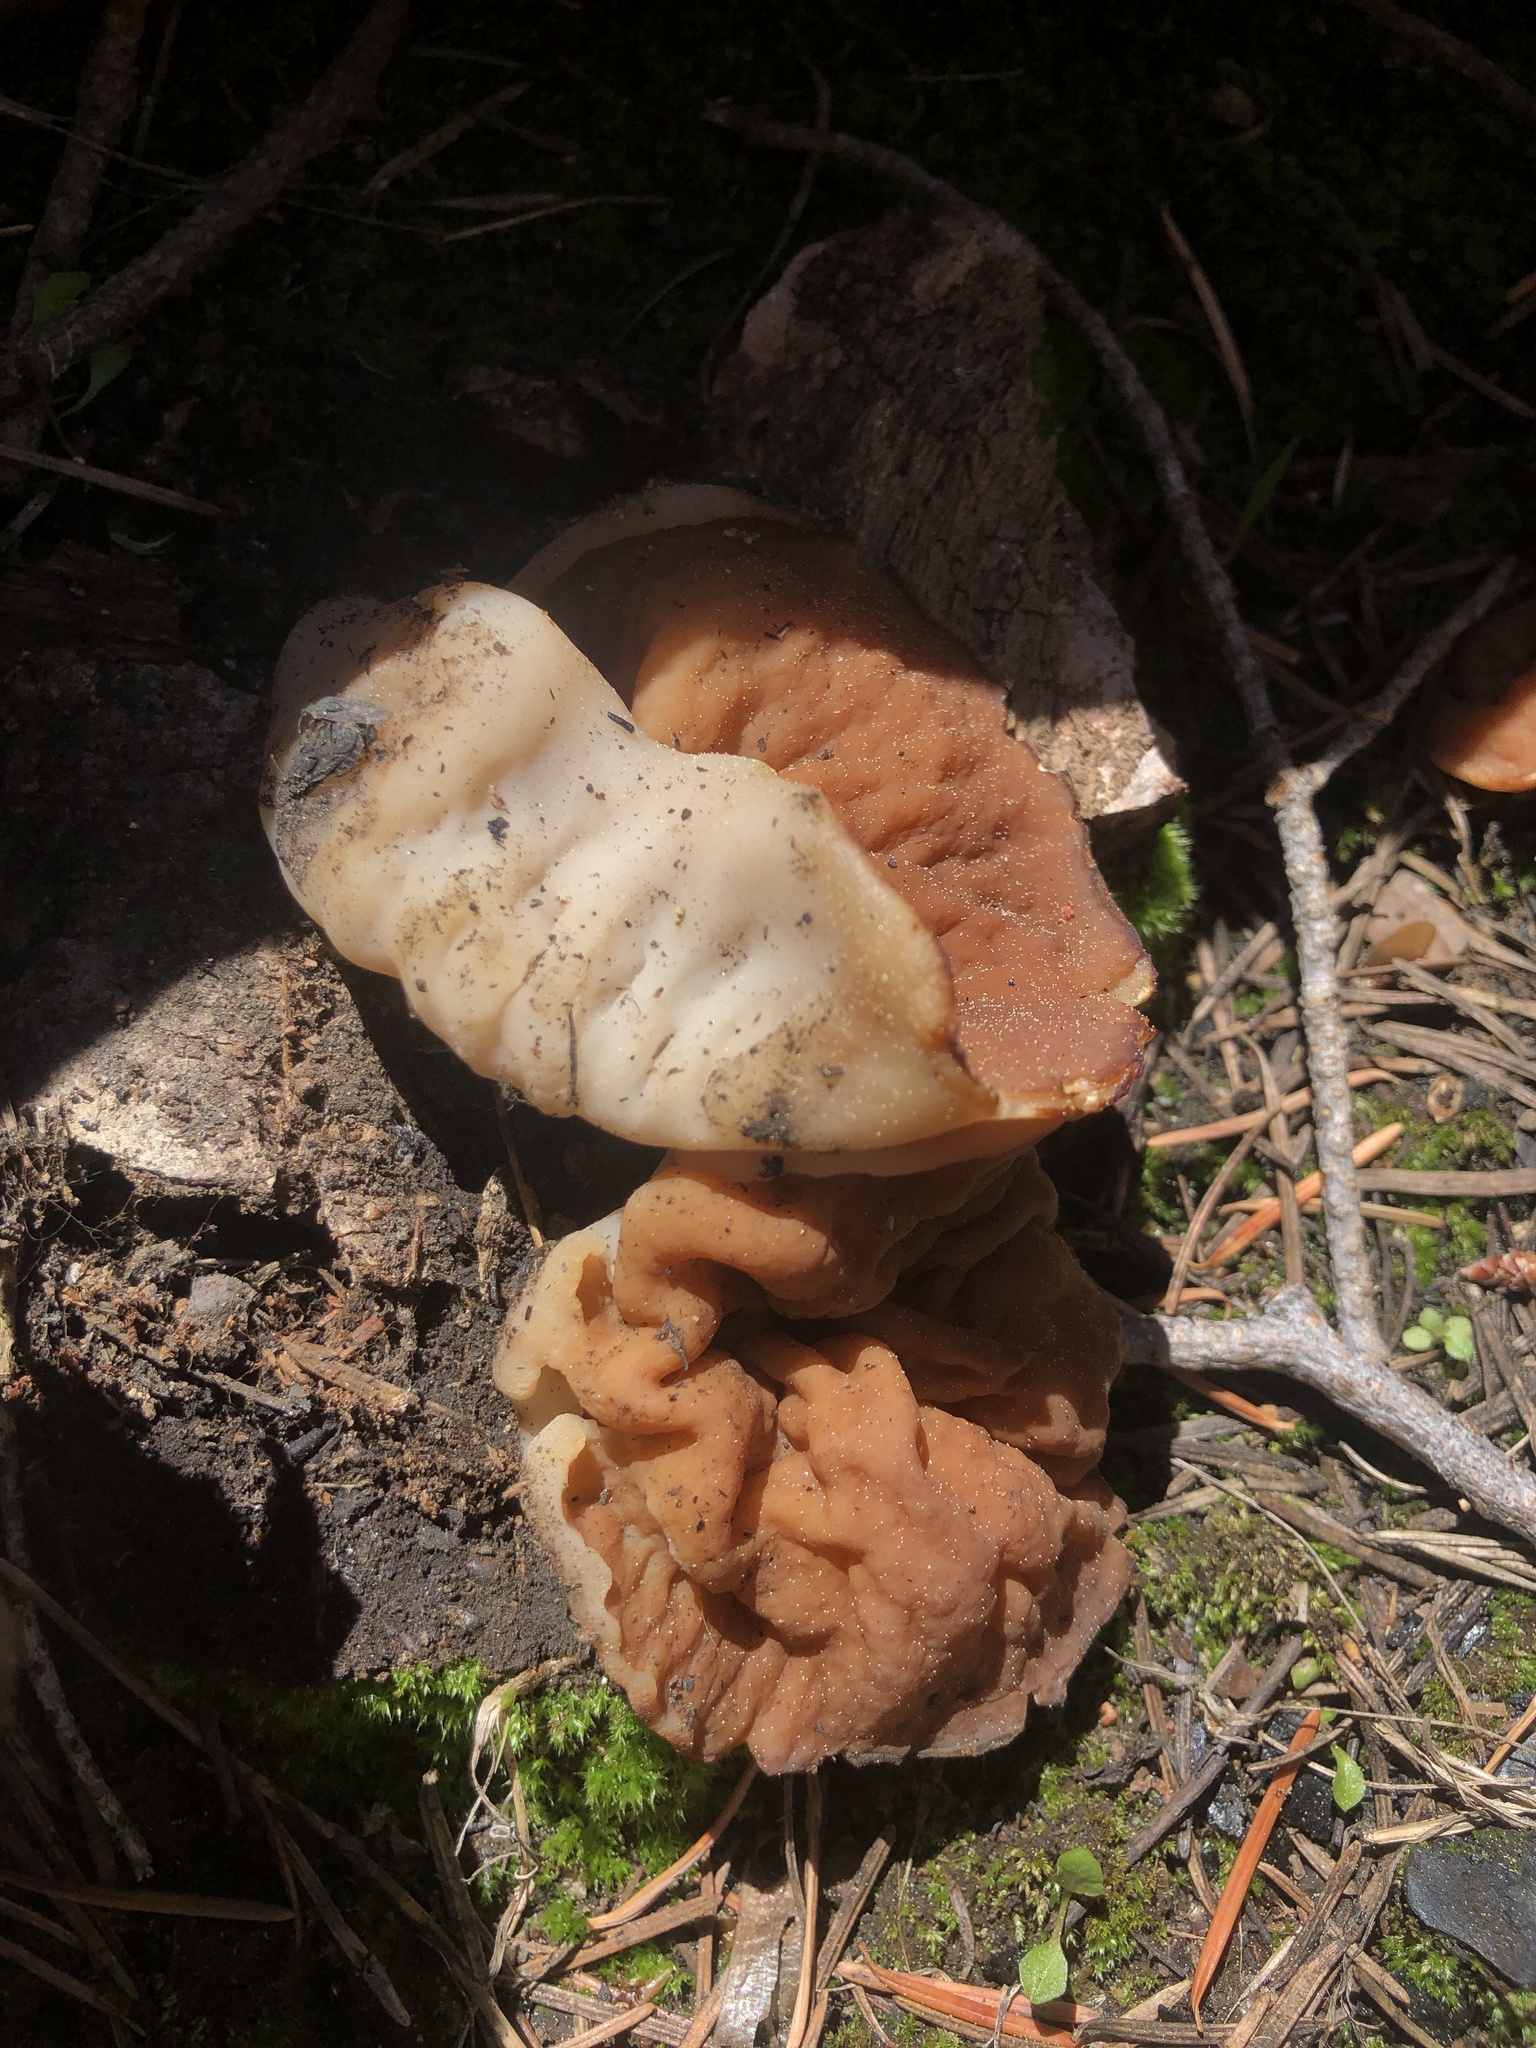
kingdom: Fungi
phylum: Ascomycota
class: Pezizomycetes
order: Pezizales
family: Discinaceae
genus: Gyromitra
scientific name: Gyromitra accumbens
